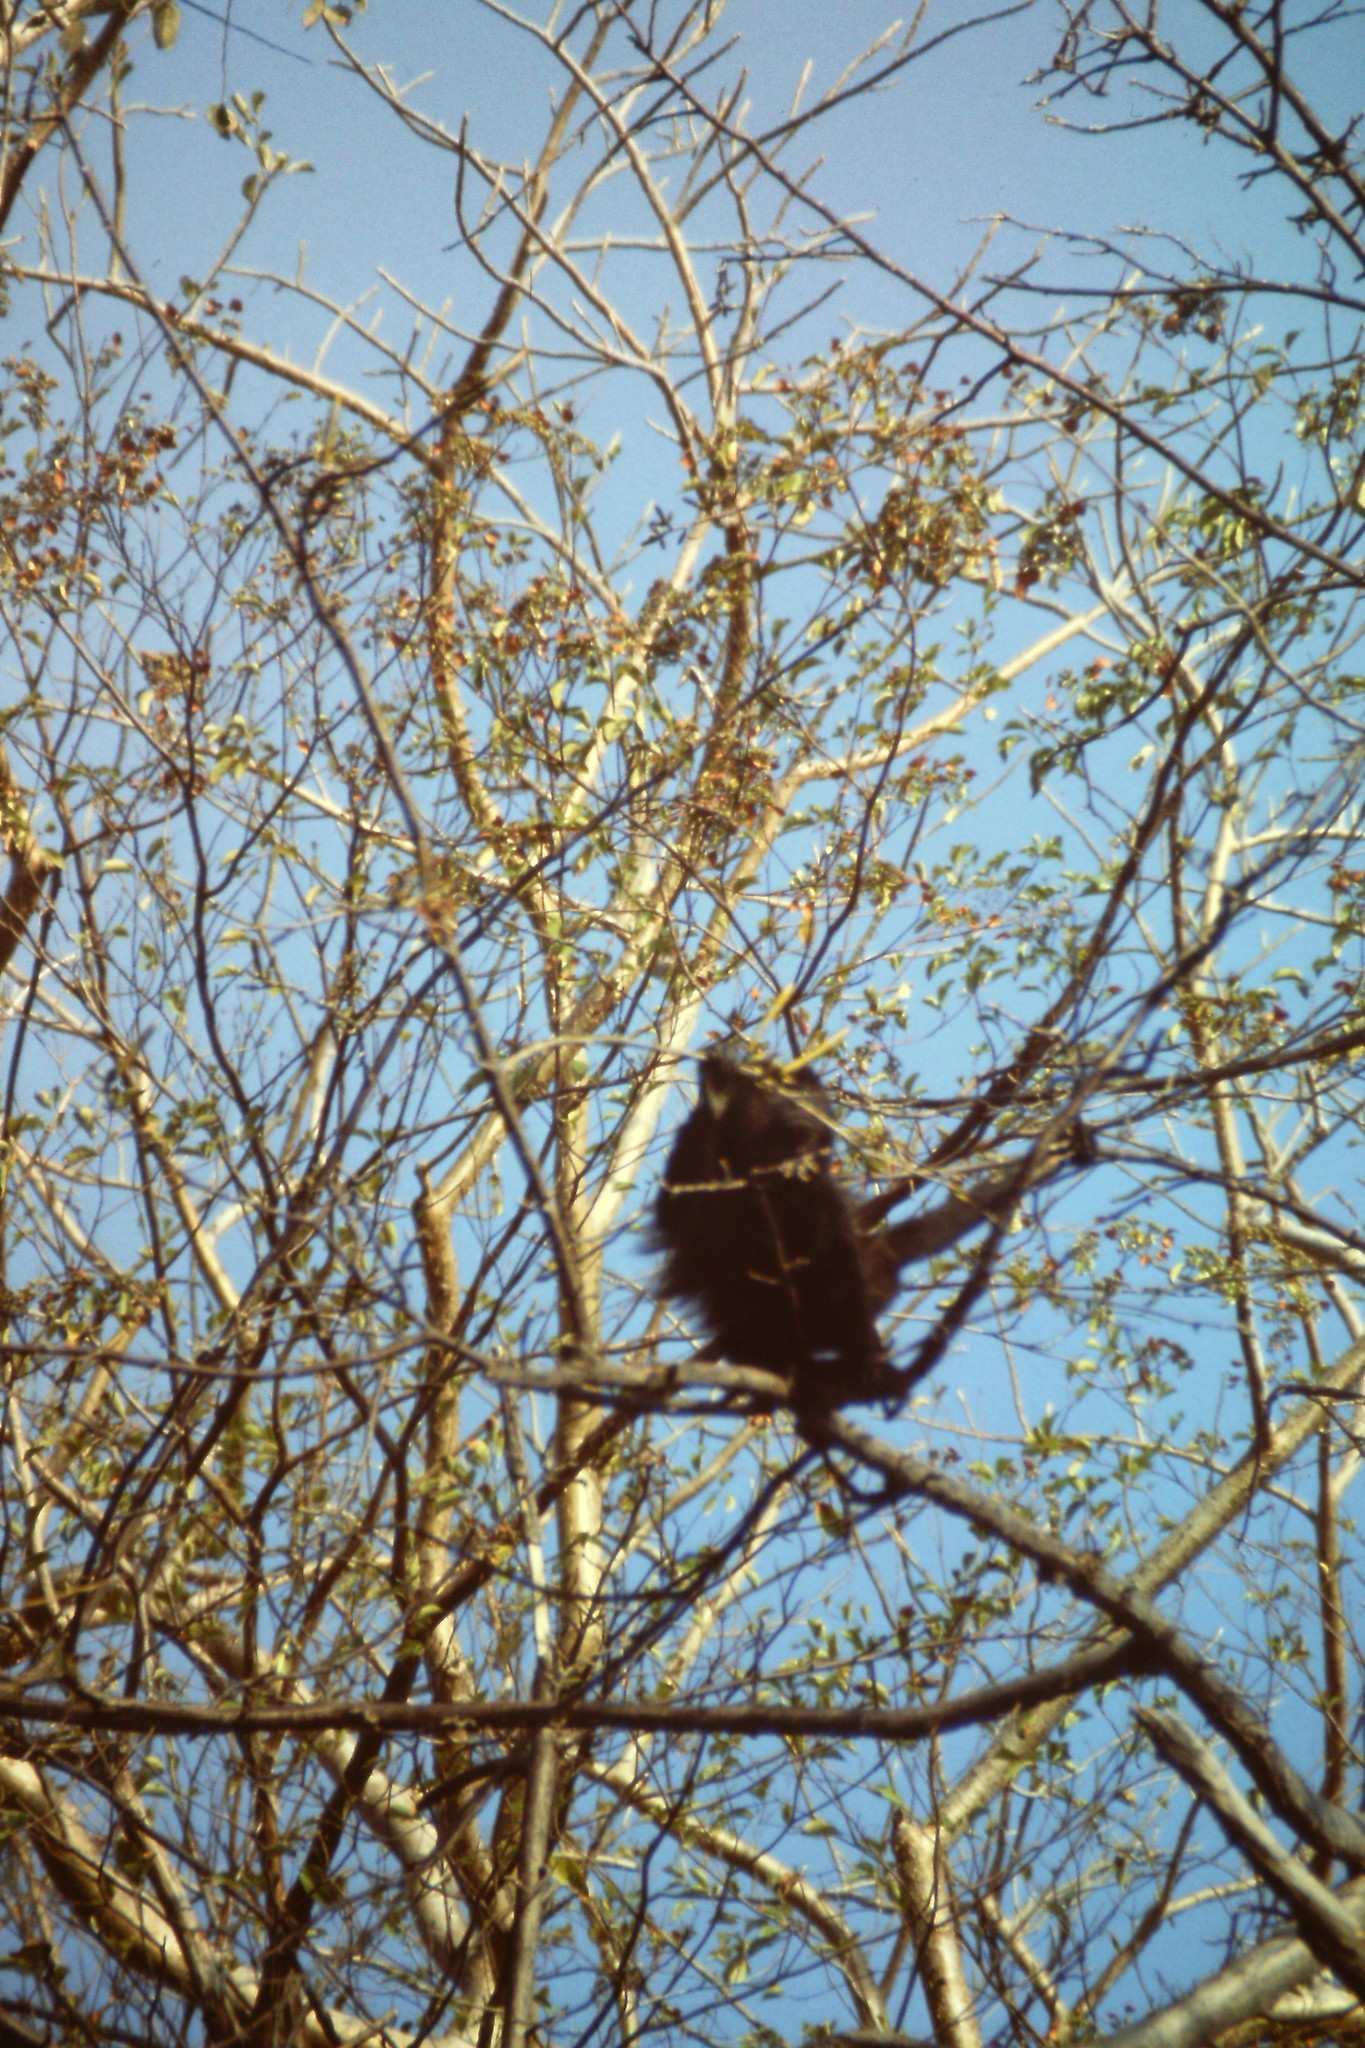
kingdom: Animalia
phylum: Chordata
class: Mammalia
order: Primates
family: Atelidae
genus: Alouatta
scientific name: Alouatta palliata
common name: Mantled howler
